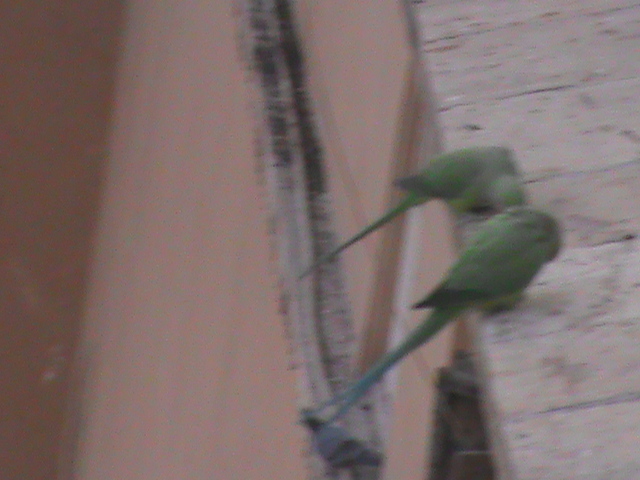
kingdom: Animalia
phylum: Chordata
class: Aves
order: Psittaciformes
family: Psittacidae
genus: Psittacula
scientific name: Psittacula krameri
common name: Rose-ringed parakeet
